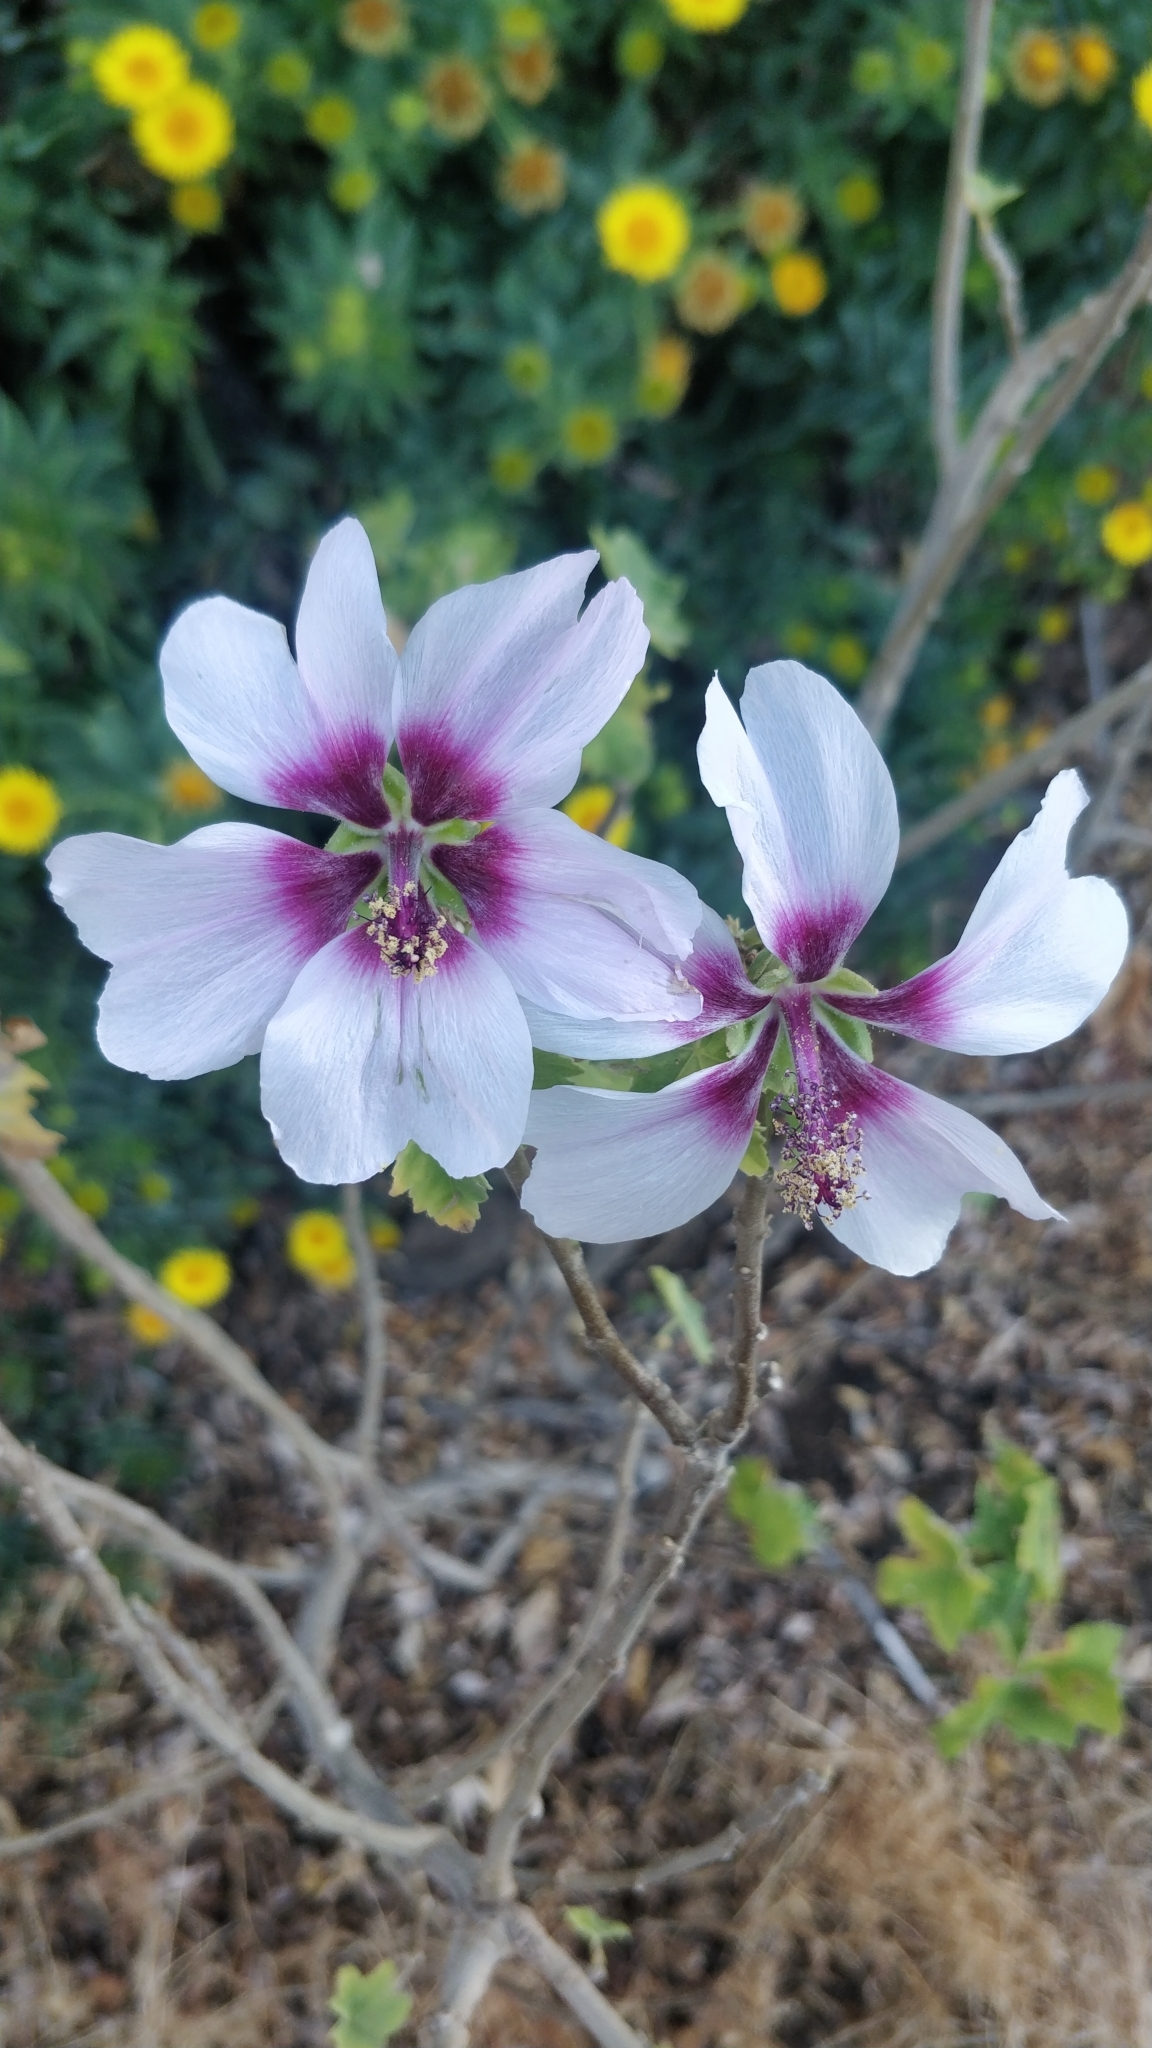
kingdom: Plantae
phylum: Tracheophyta
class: Magnoliopsida
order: Malvales
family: Malvaceae
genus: Malva
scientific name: Malva acerifolia
